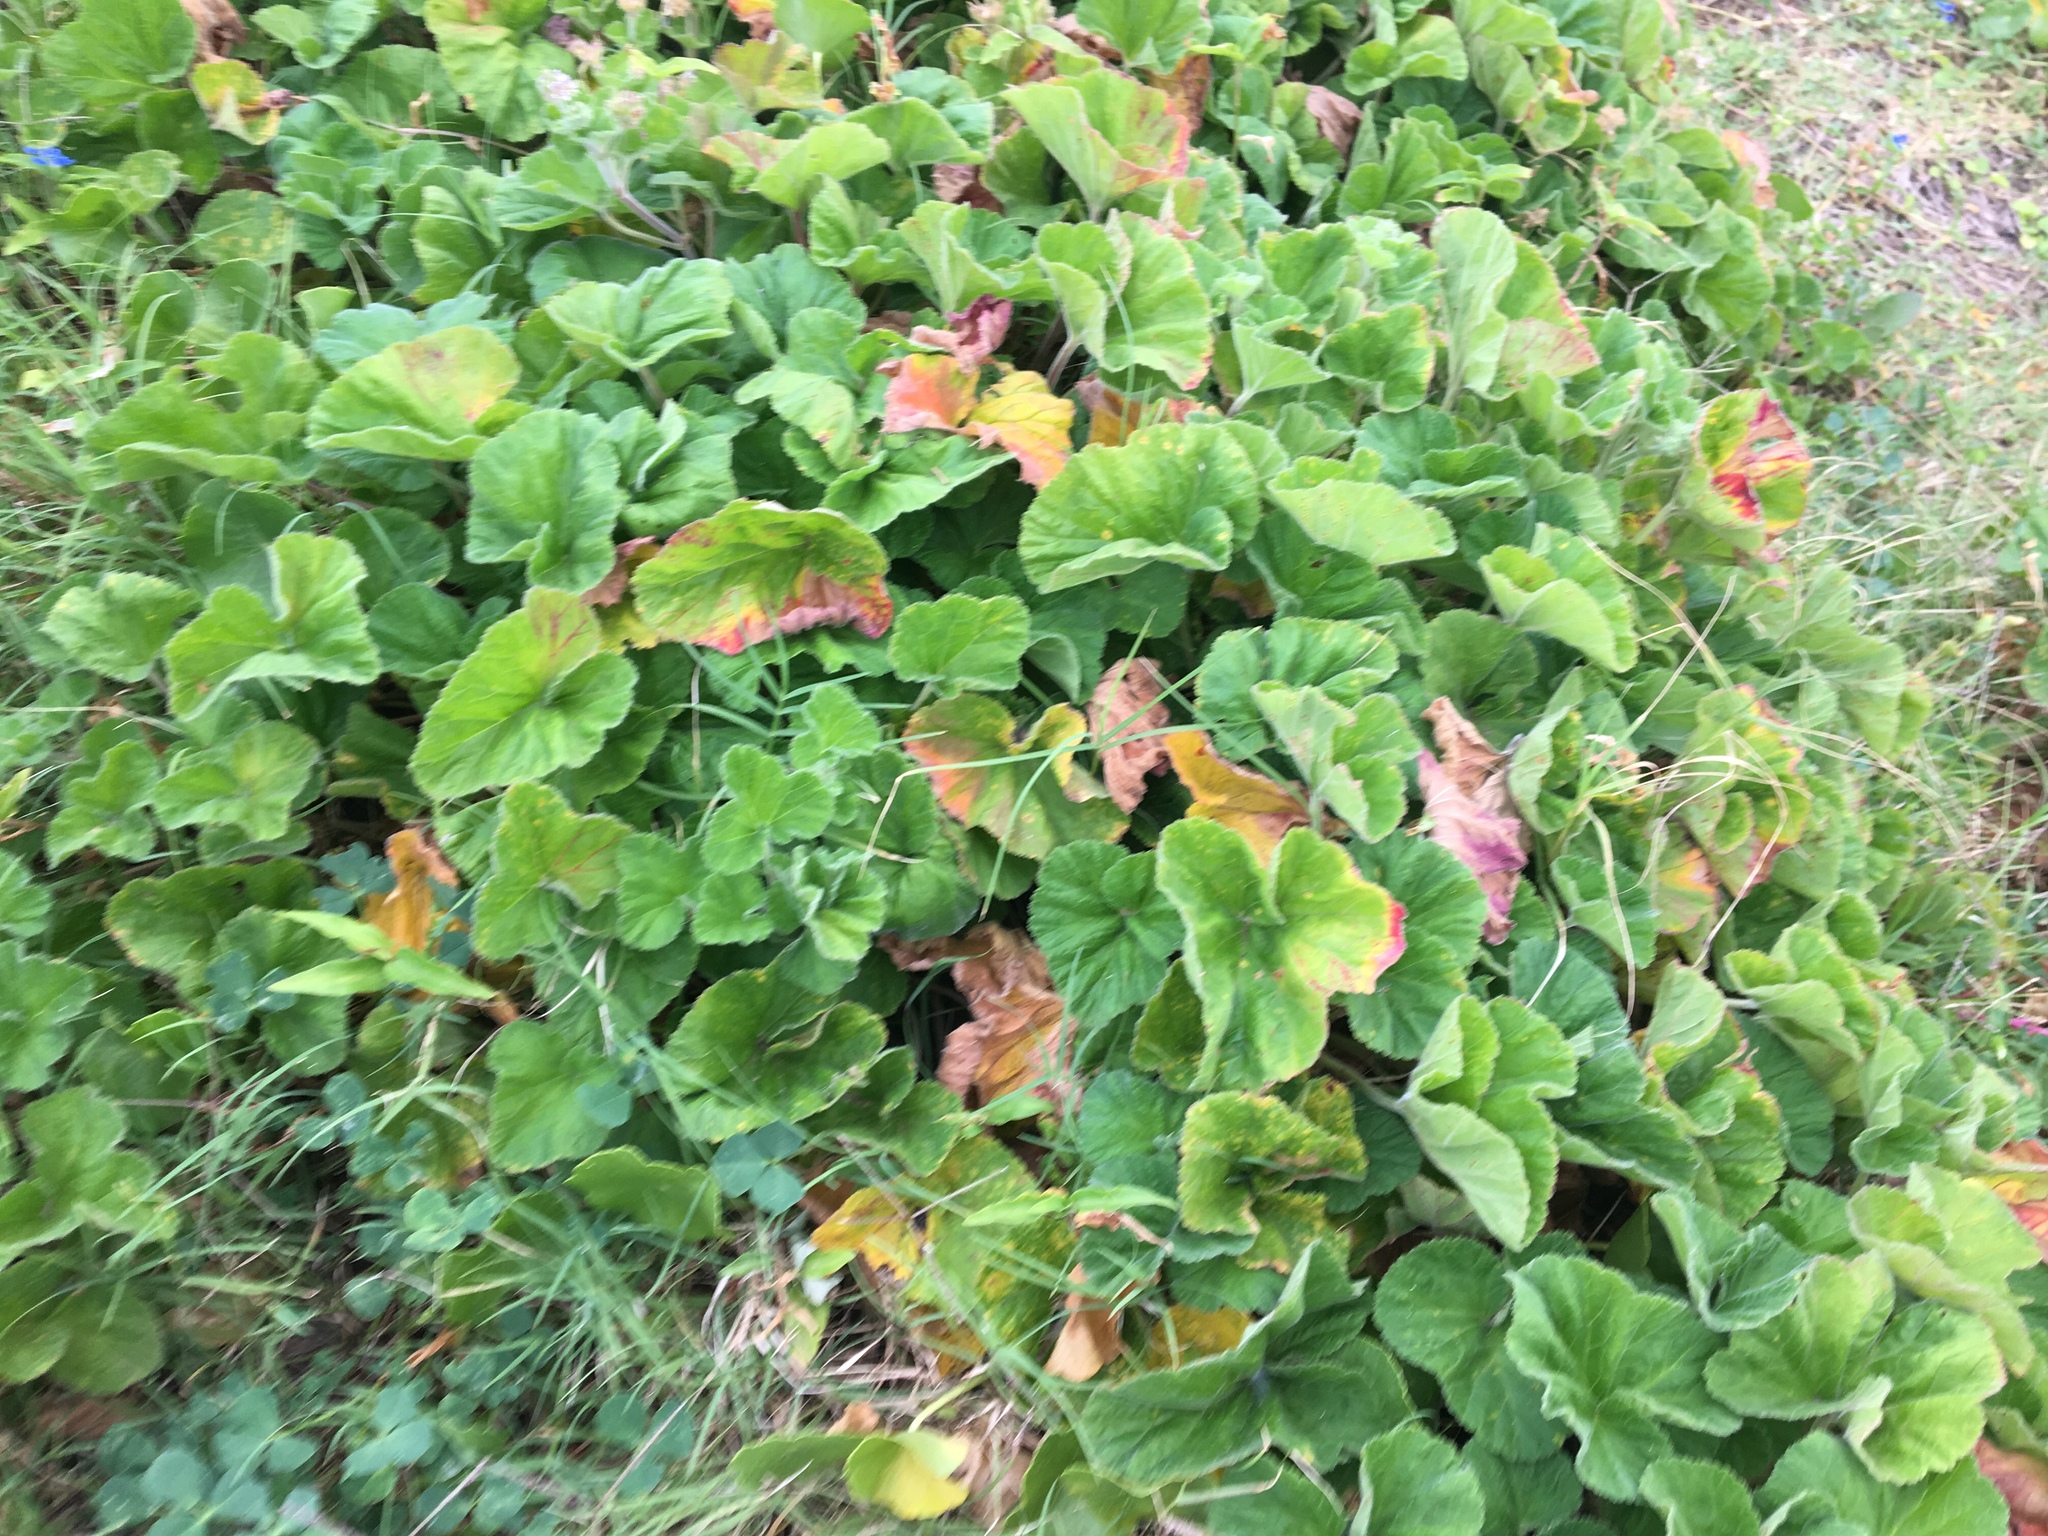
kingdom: Plantae
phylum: Tracheophyta
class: Magnoliopsida
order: Geraniales
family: Geraniaceae
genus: Pelargonium
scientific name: Pelargonium australe
